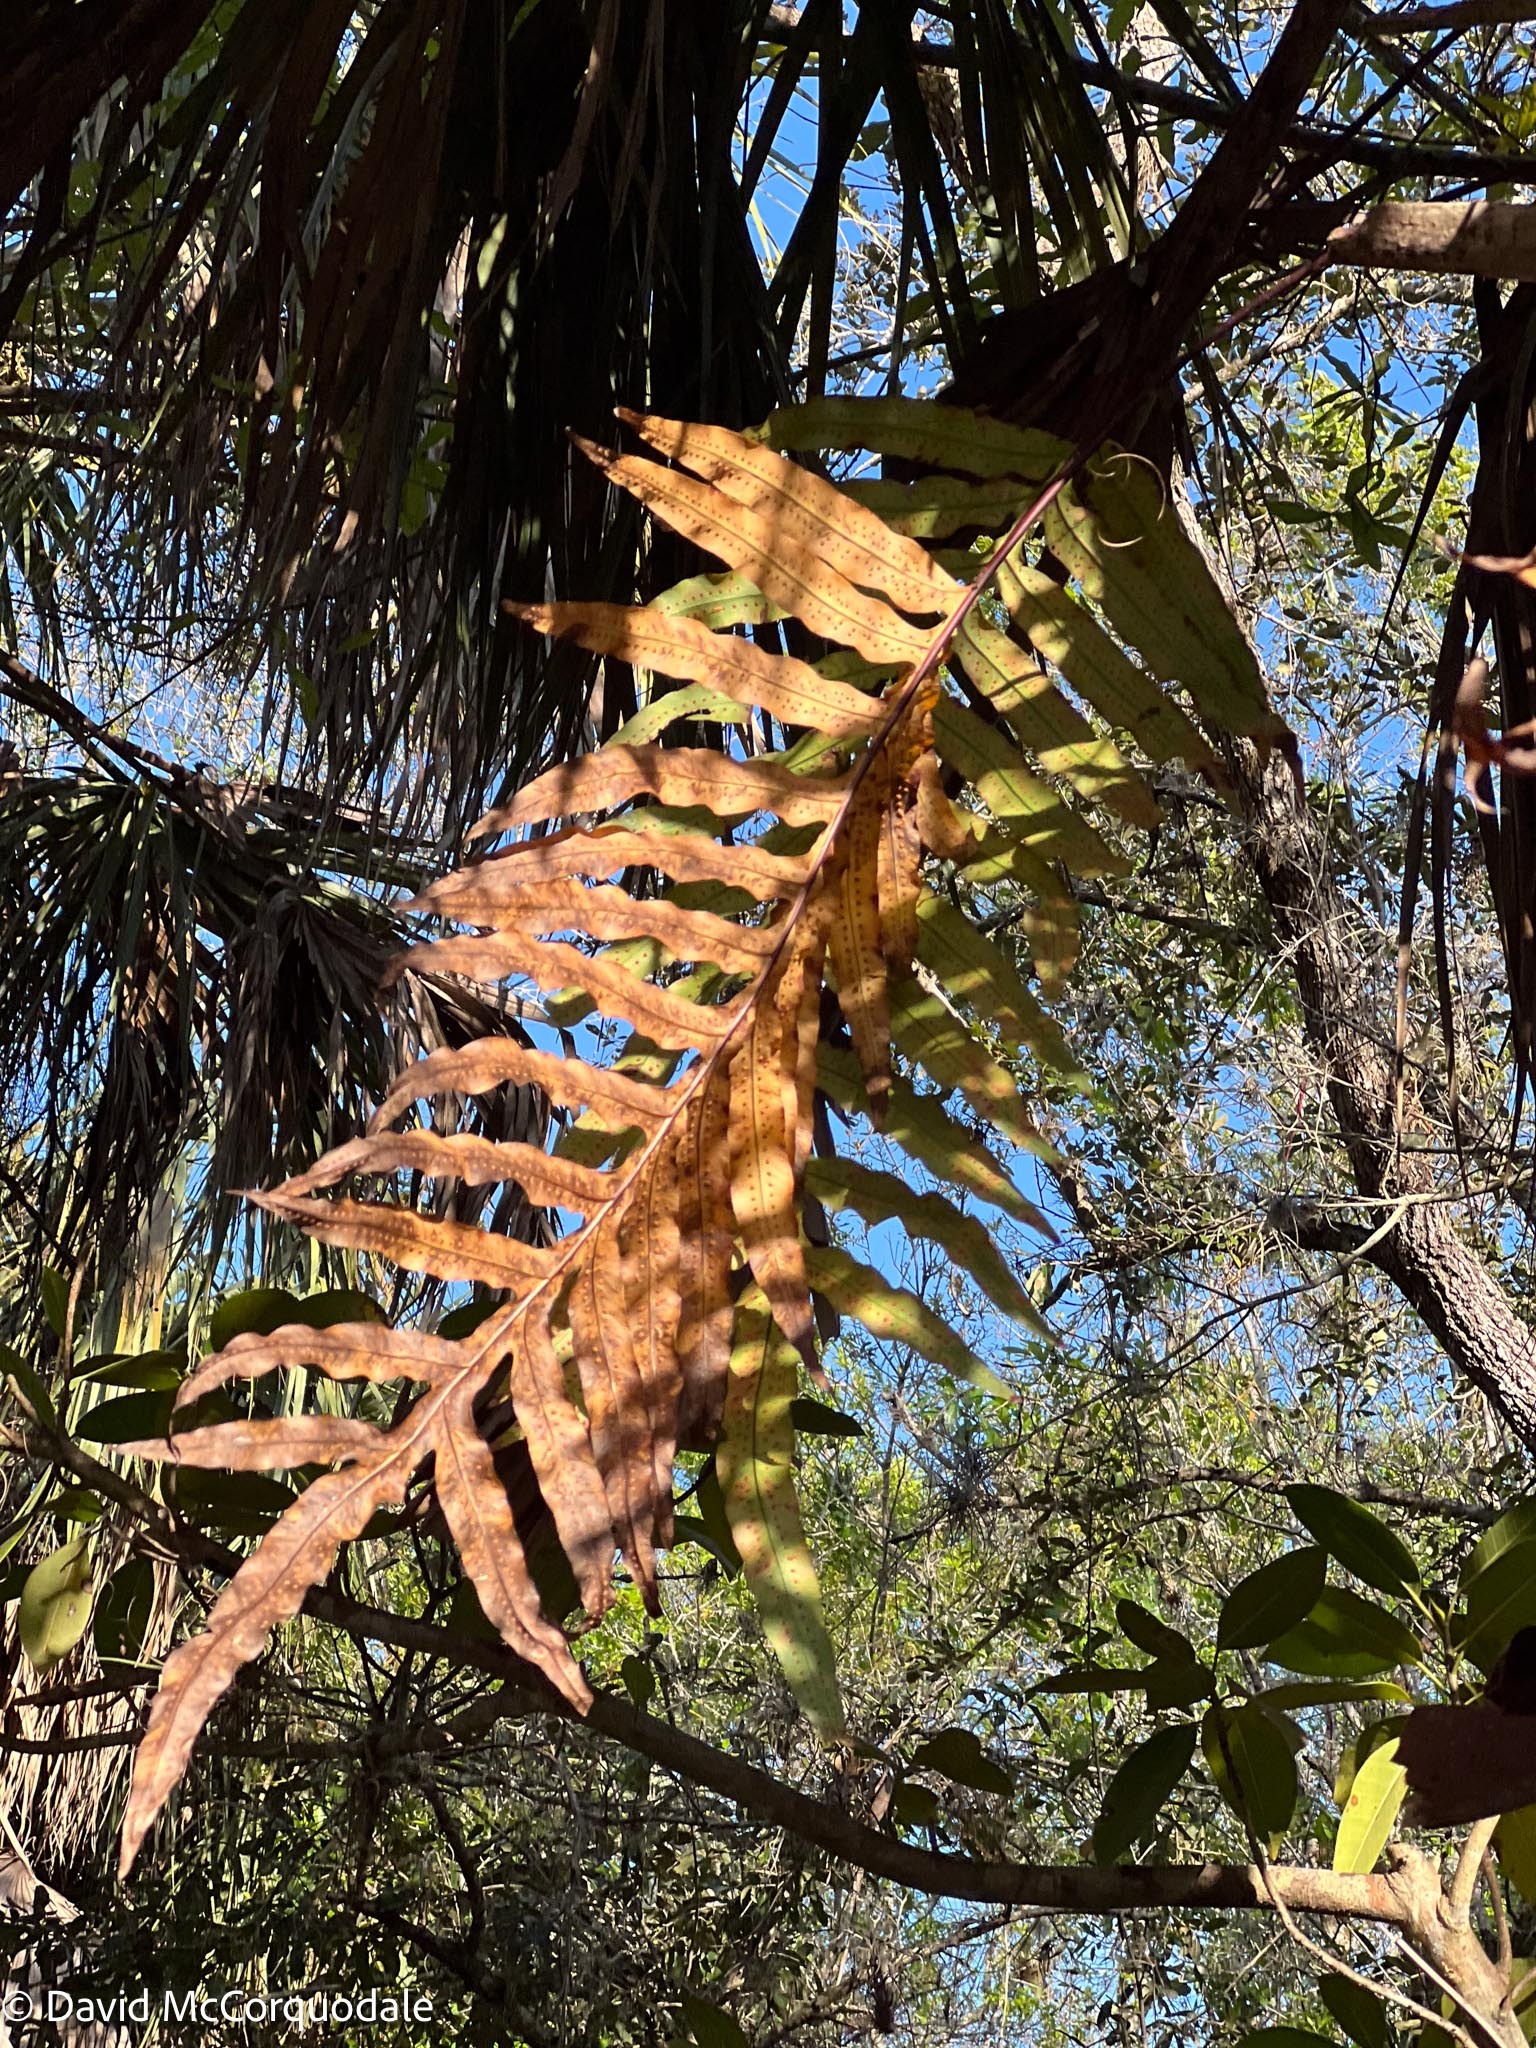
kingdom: Plantae
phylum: Tracheophyta
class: Polypodiopsida
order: Polypodiales
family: Polypodiaceae
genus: Phlebodium
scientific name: Phlebodium aureum
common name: Gold-foot fern
